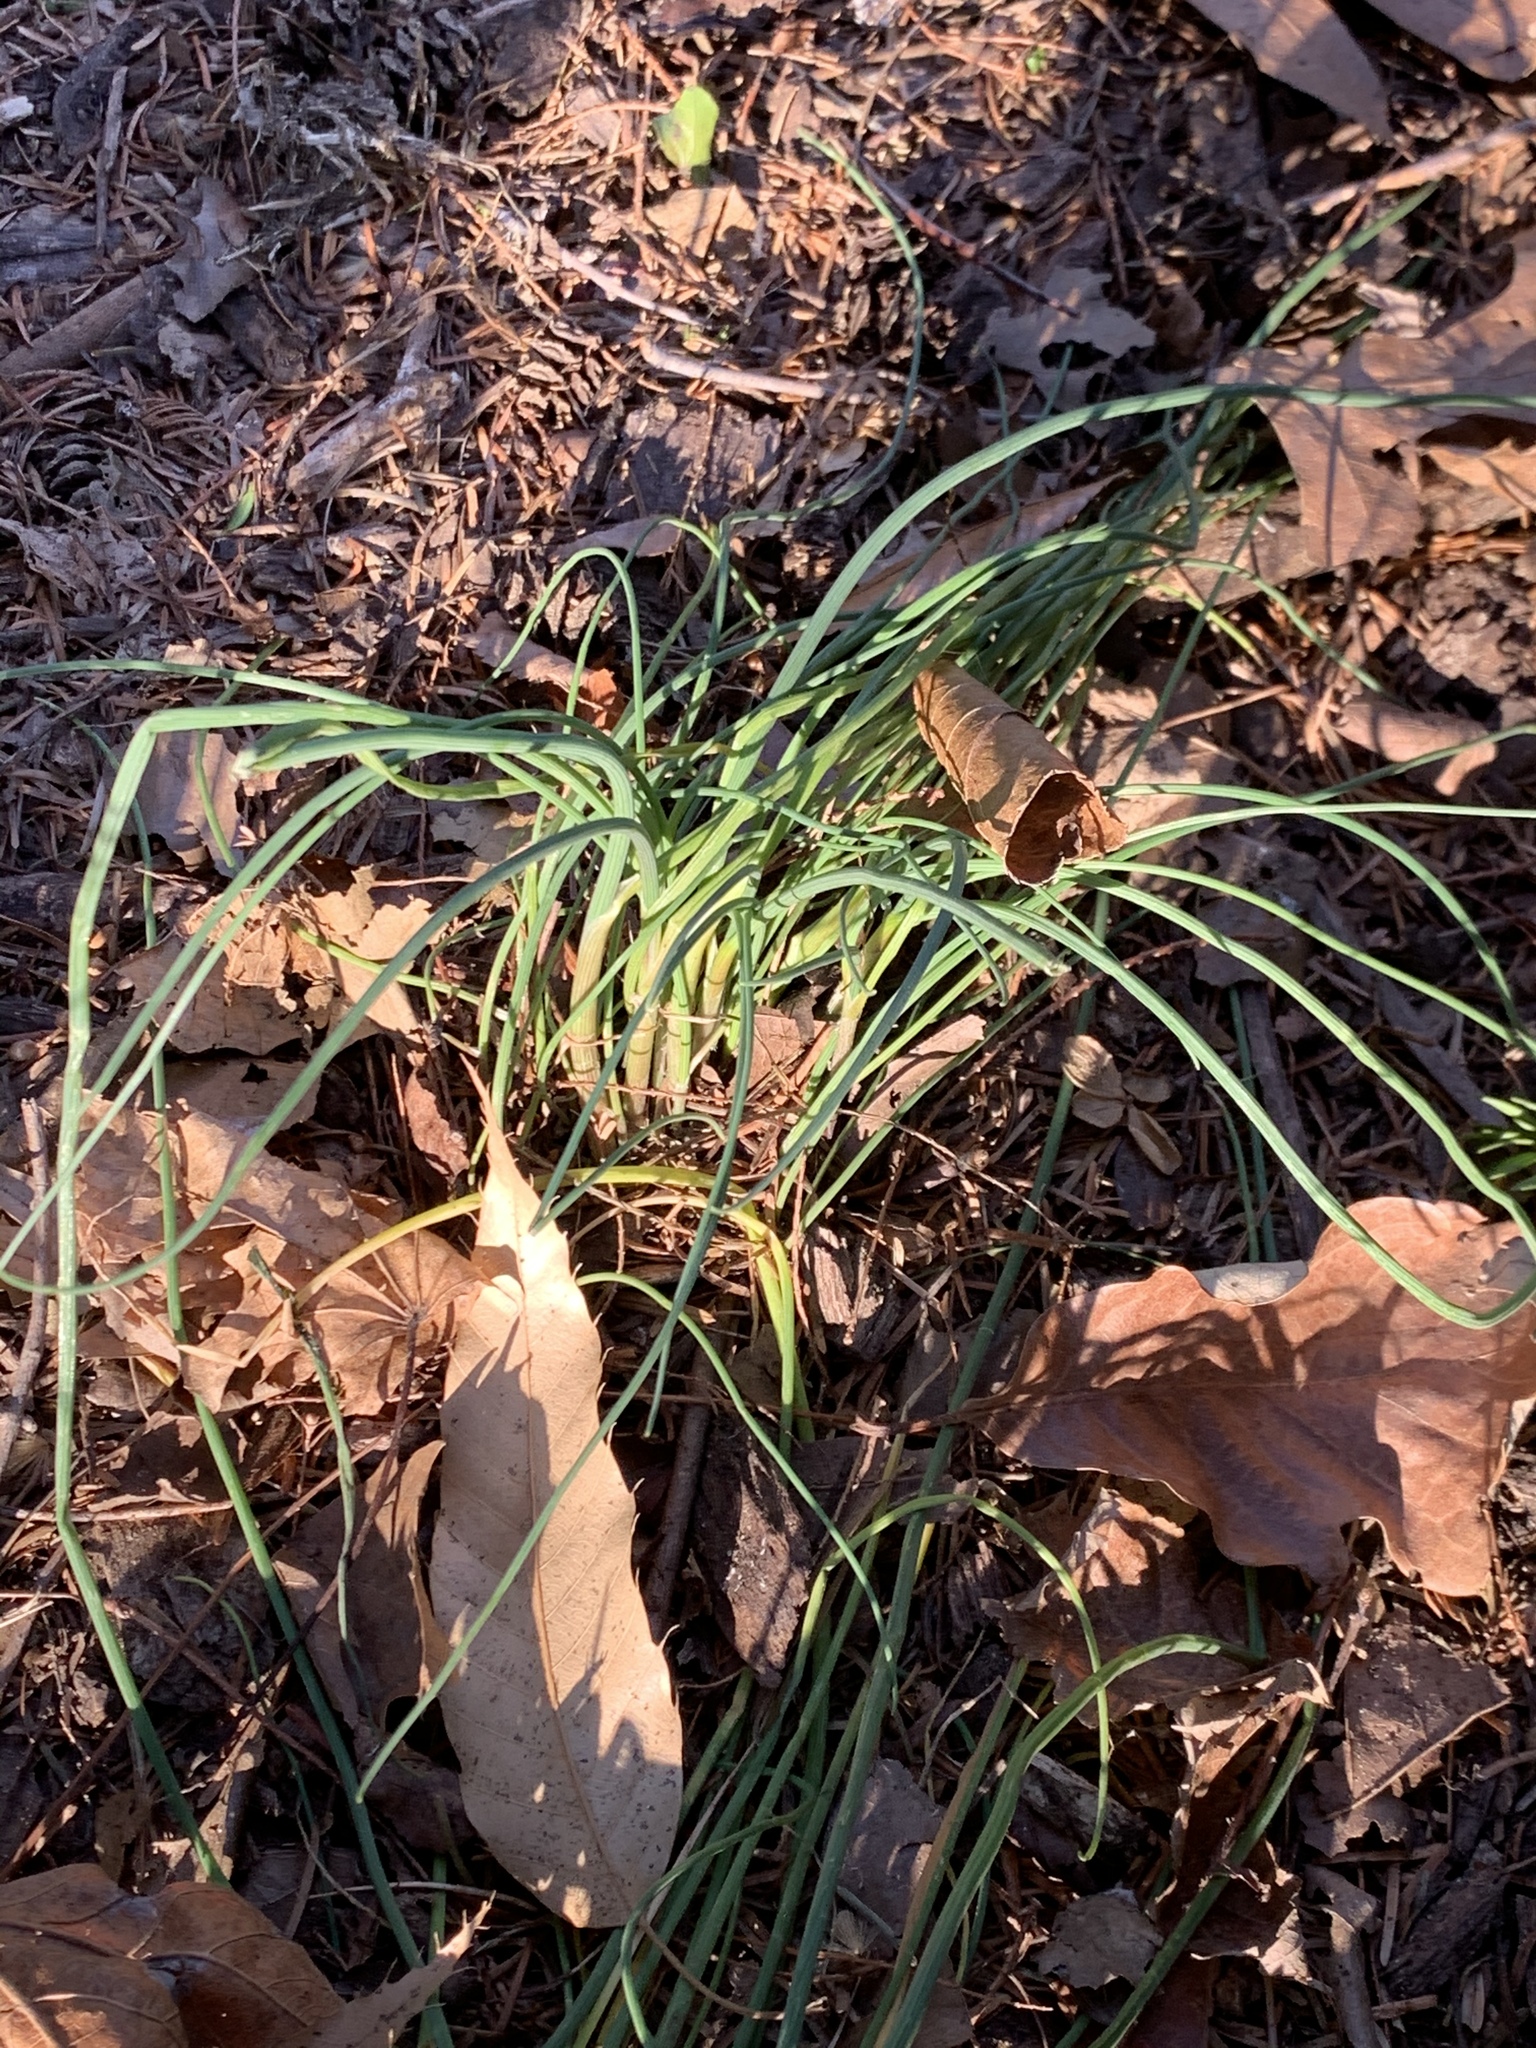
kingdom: Plantae
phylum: Tracheophyta
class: Liliopsida
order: Asparagales
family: Amaryllidaceae
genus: Allium
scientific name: Allium vineale
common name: Crow garlic
